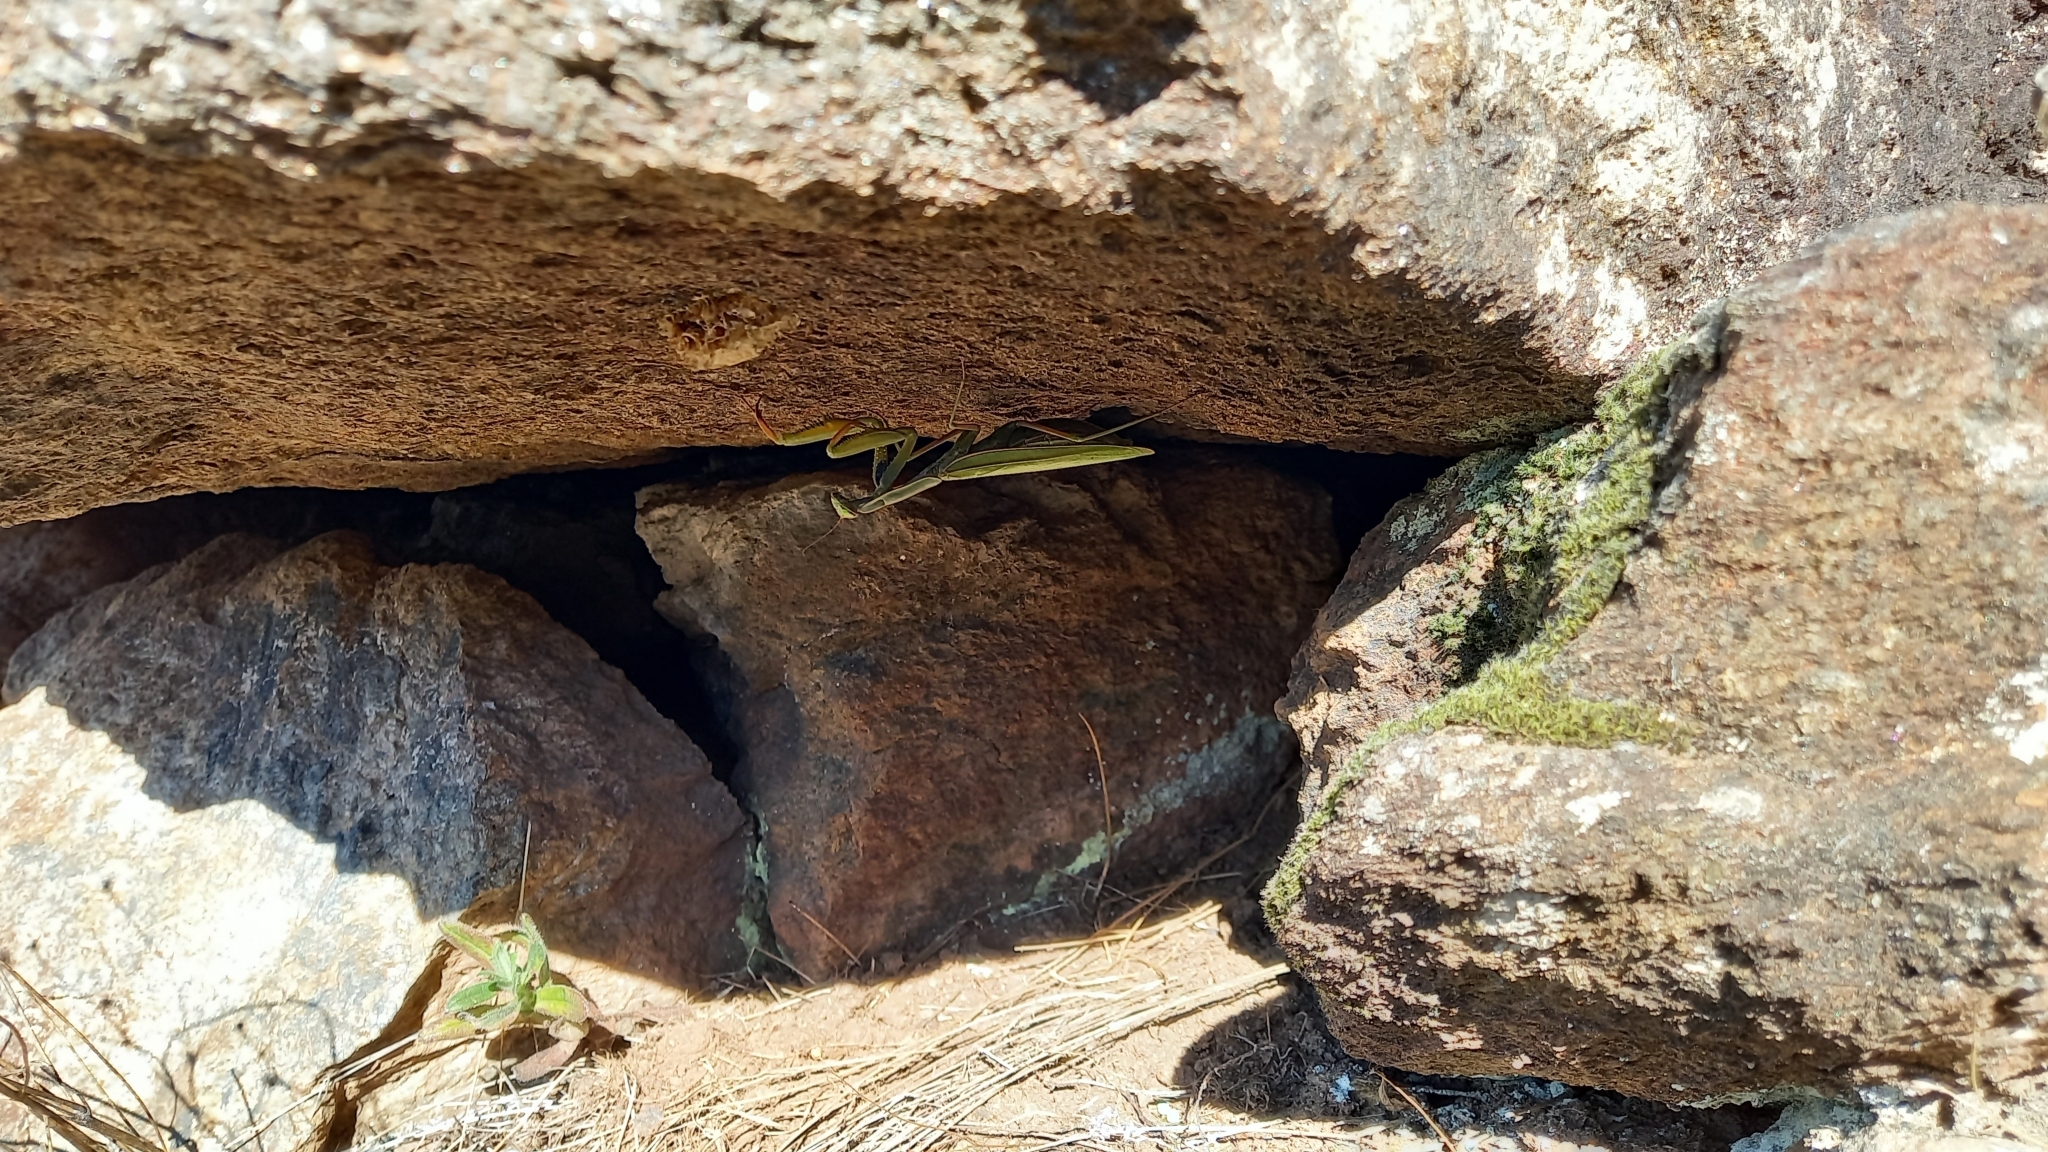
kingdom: Animalia
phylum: Arthropoda
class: Insecta
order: Mantodea
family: Mantidae
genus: Mantis
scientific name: Mantis religiosa
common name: Praying mantis
